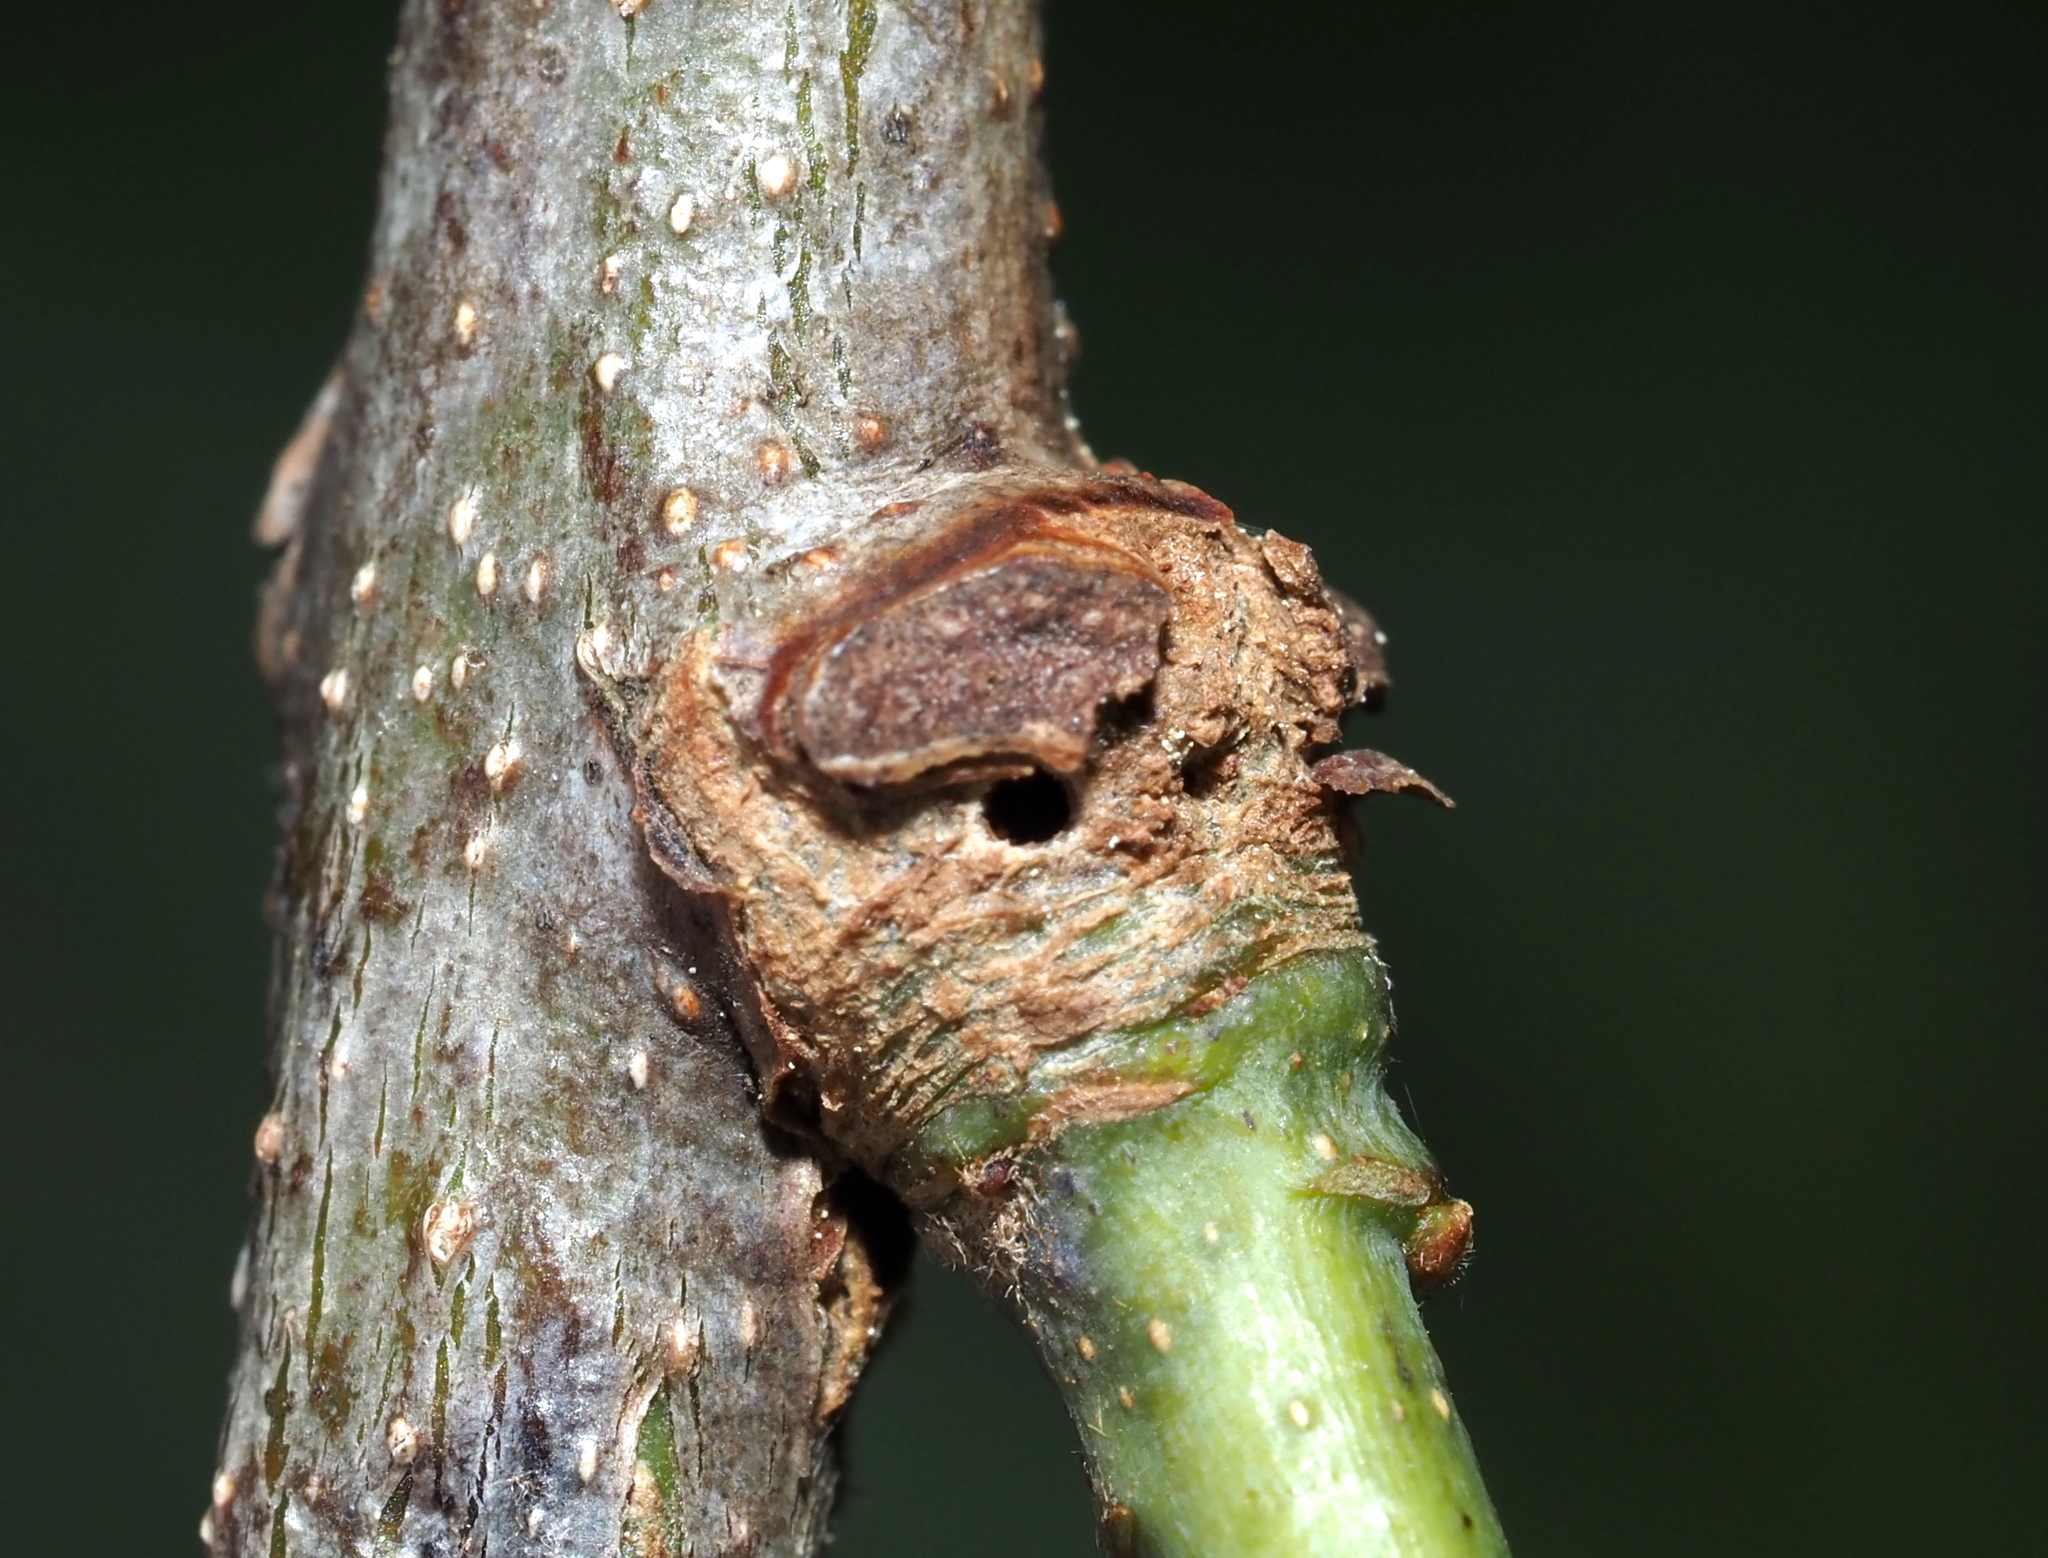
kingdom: Animalia
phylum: Arthropoda
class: Insecta
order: Hymenoptera
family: Cynipidae
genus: Loxaulus
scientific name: Loxaulus
